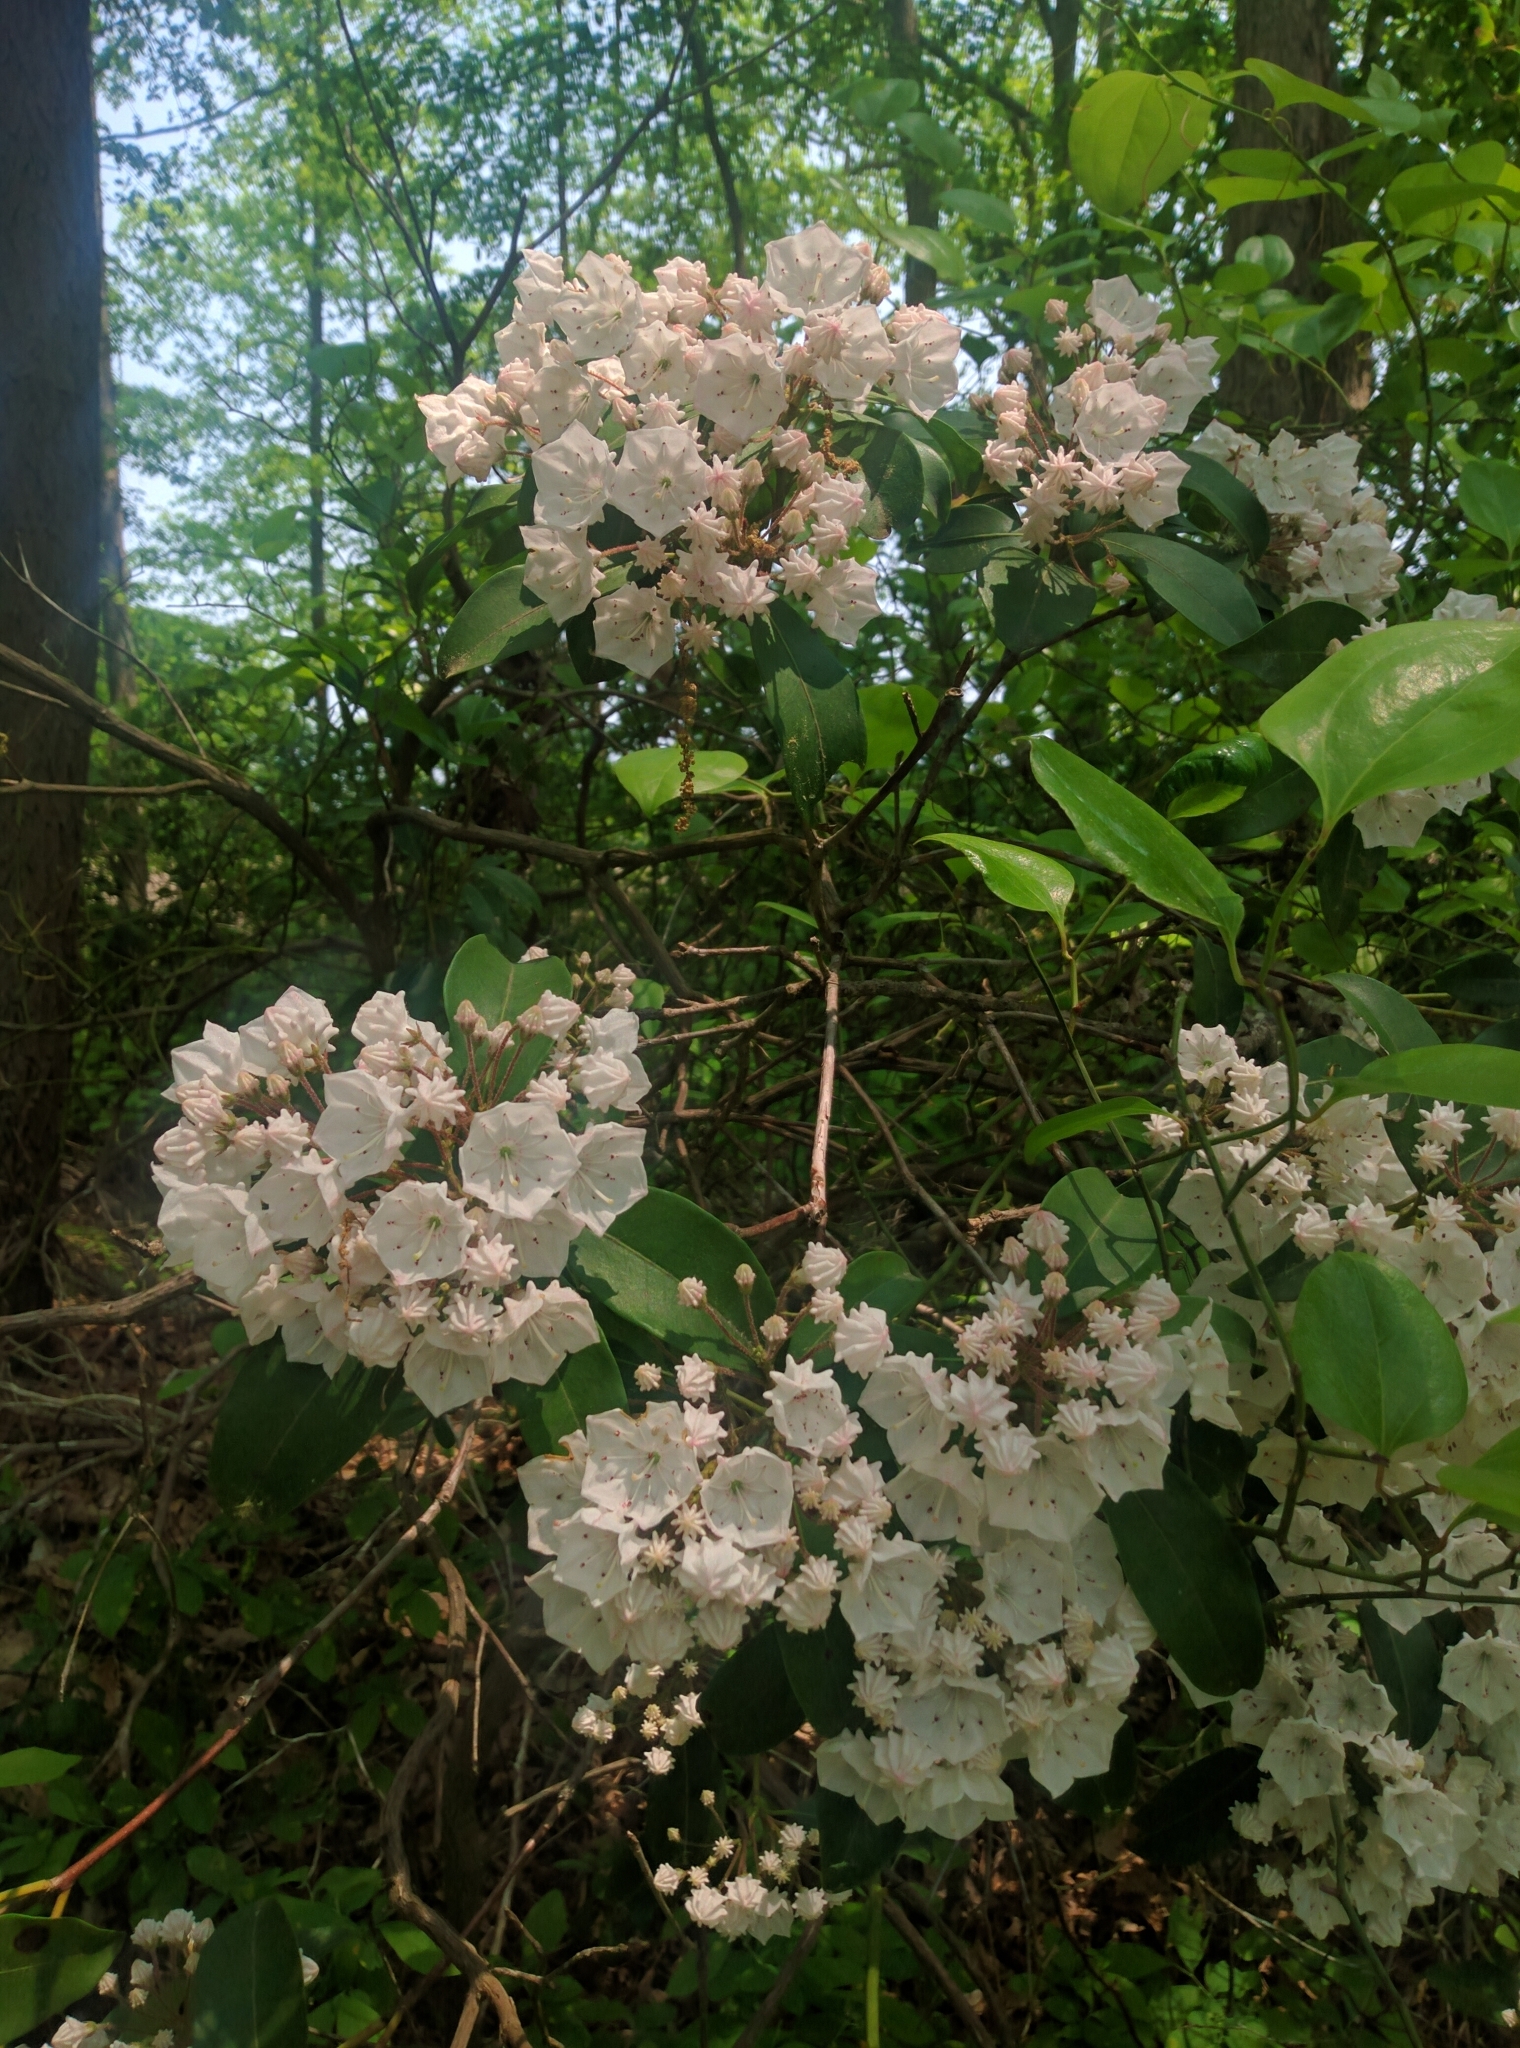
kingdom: Plantae
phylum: Tracheophyta
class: Magnoliopsida
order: Ericales
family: Ericaceae
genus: Kalmia
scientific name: Kalmia latifolia
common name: Mountain-laurel
